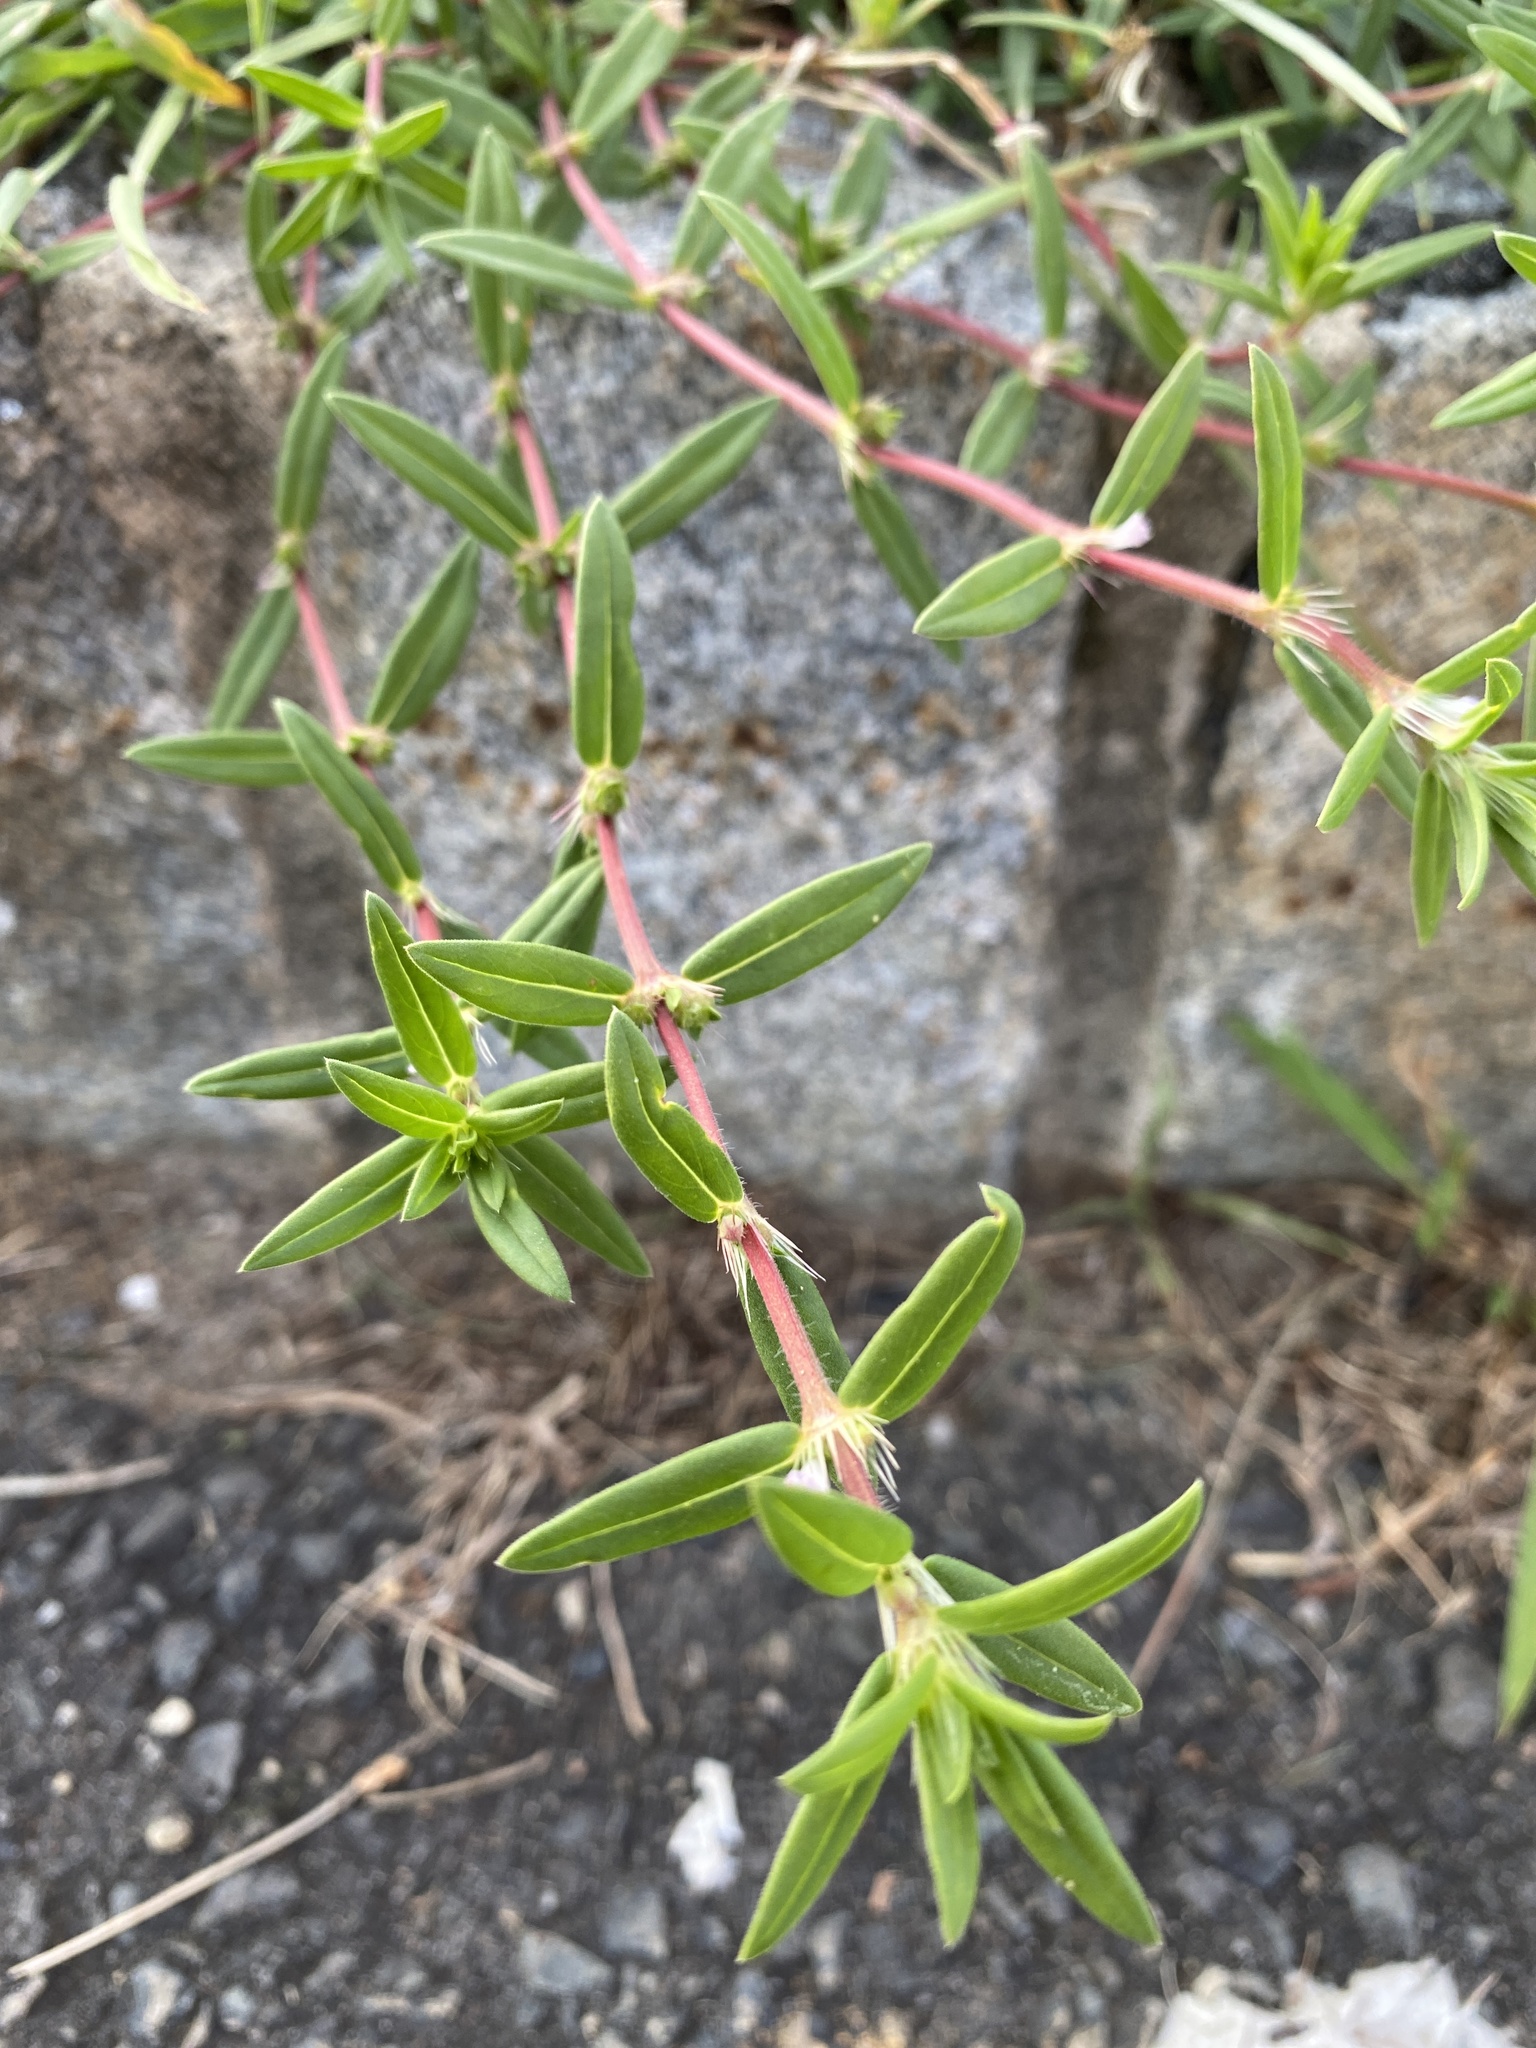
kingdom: Plantae
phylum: Tracheophyta
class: Magnoliopsida
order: Gentianales
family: Rubiaceae
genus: Hexasepalum
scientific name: Hexasepalum teres
